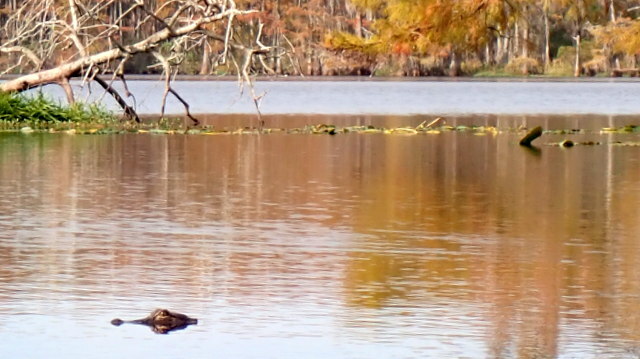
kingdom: Animalia
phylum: Chordata
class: Crocodylia
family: Alligatoridae
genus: Alligator
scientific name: Alligator mississippiensis
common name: American alligator
